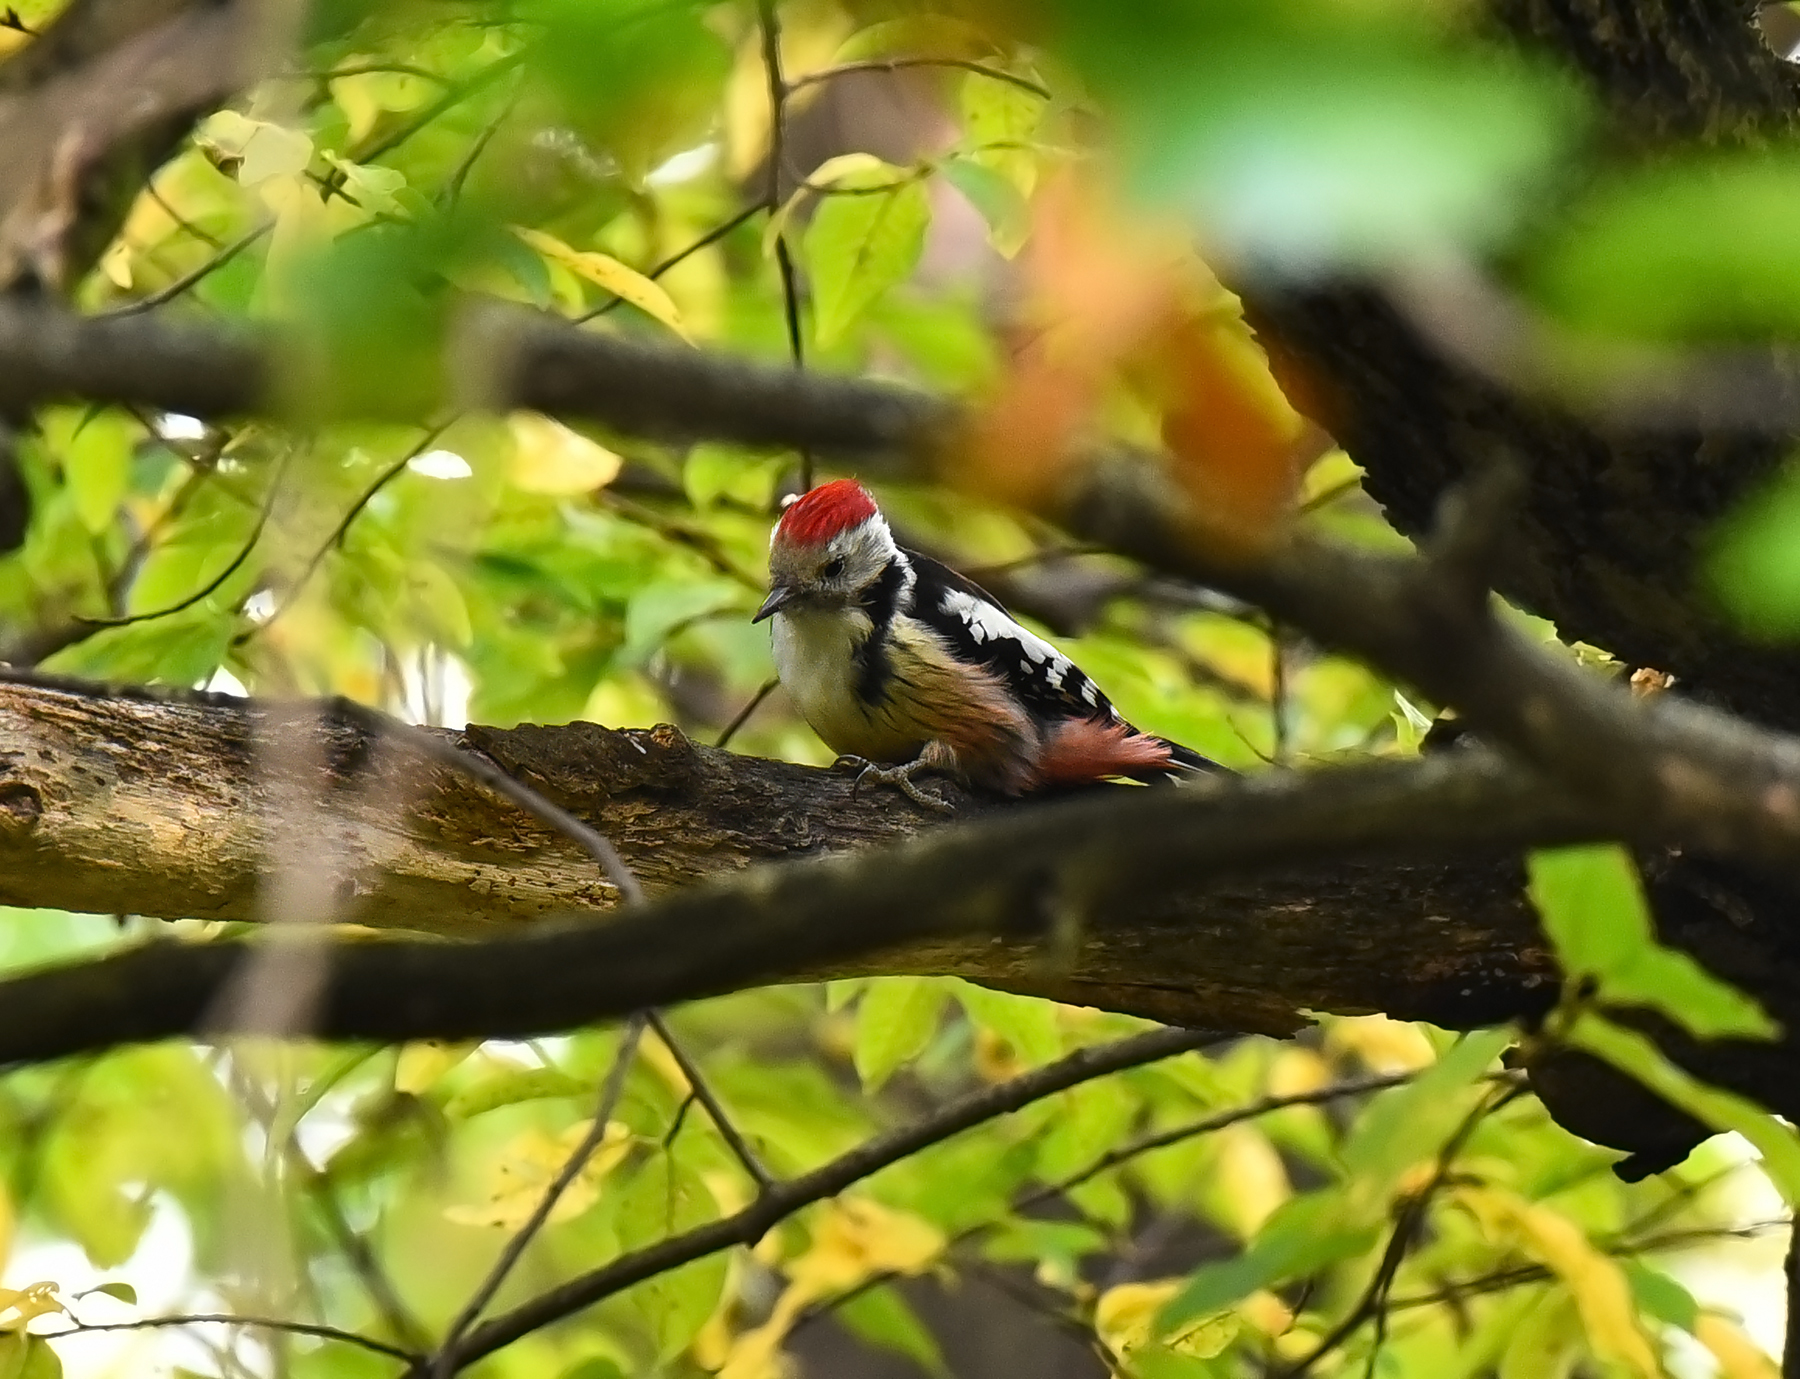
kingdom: Animalia
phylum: Chordata
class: Aves
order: Piciformes
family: Picidae
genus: Dendrocoptes
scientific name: Dendrocoptes medius
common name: Middle spotted woodpecker
